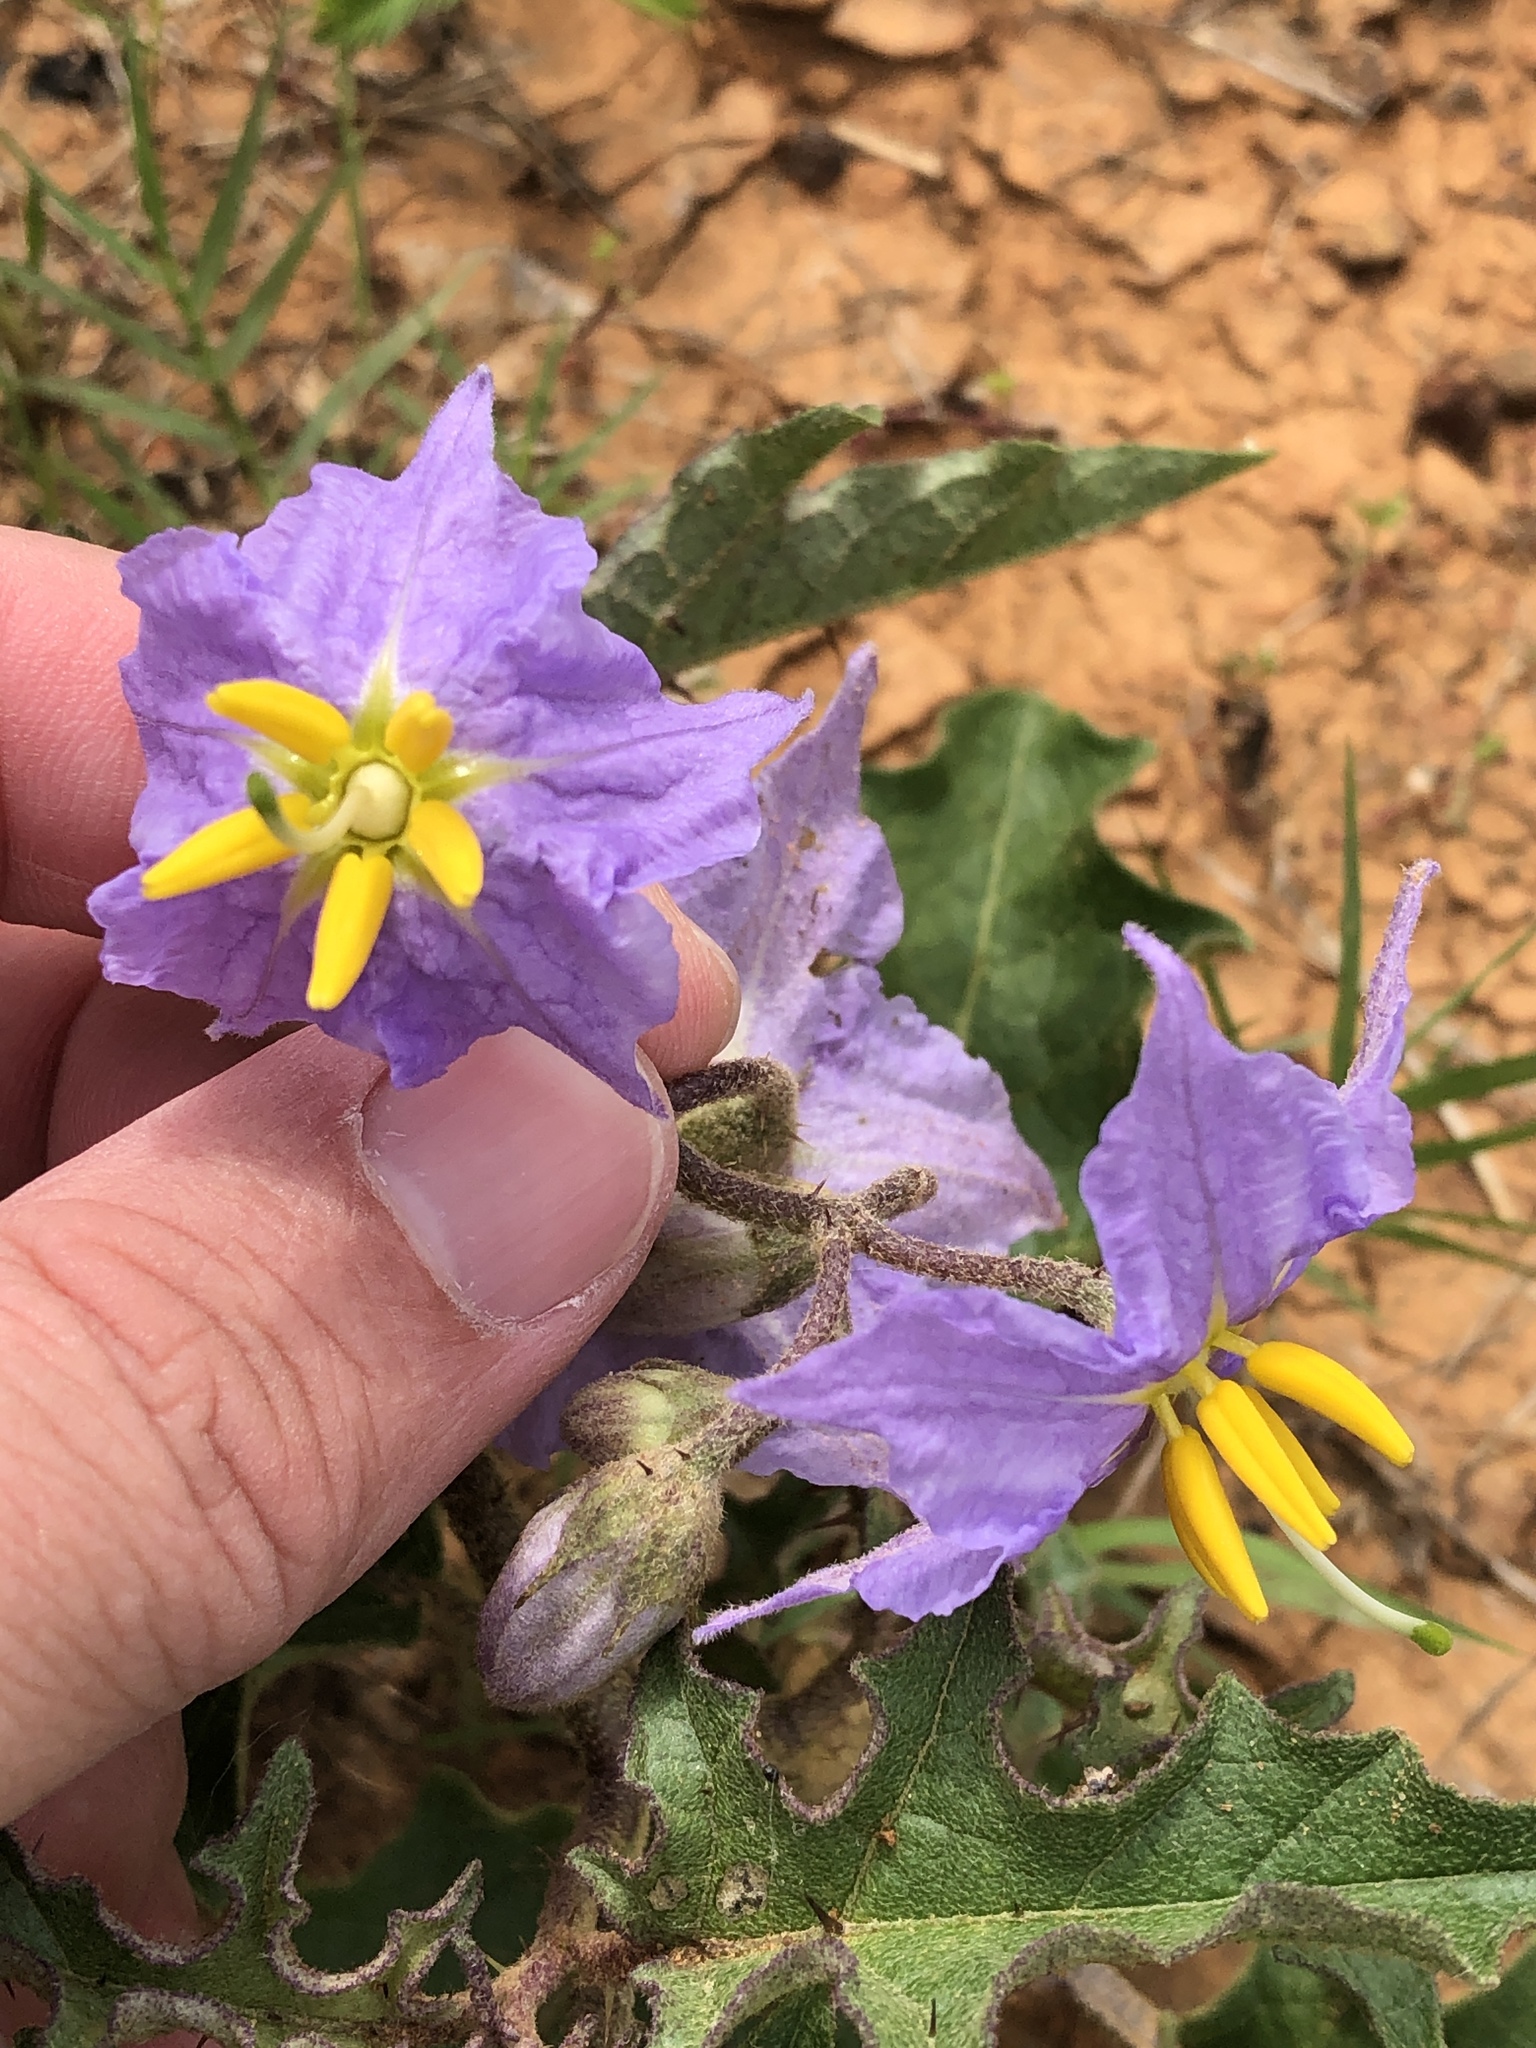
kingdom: Plantae
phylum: Tracheophyta
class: Magnoliopsida
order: Solanales
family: Solanaceae
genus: Solanum
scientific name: Solanum dimidiatum
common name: Carolina horse-nettle
